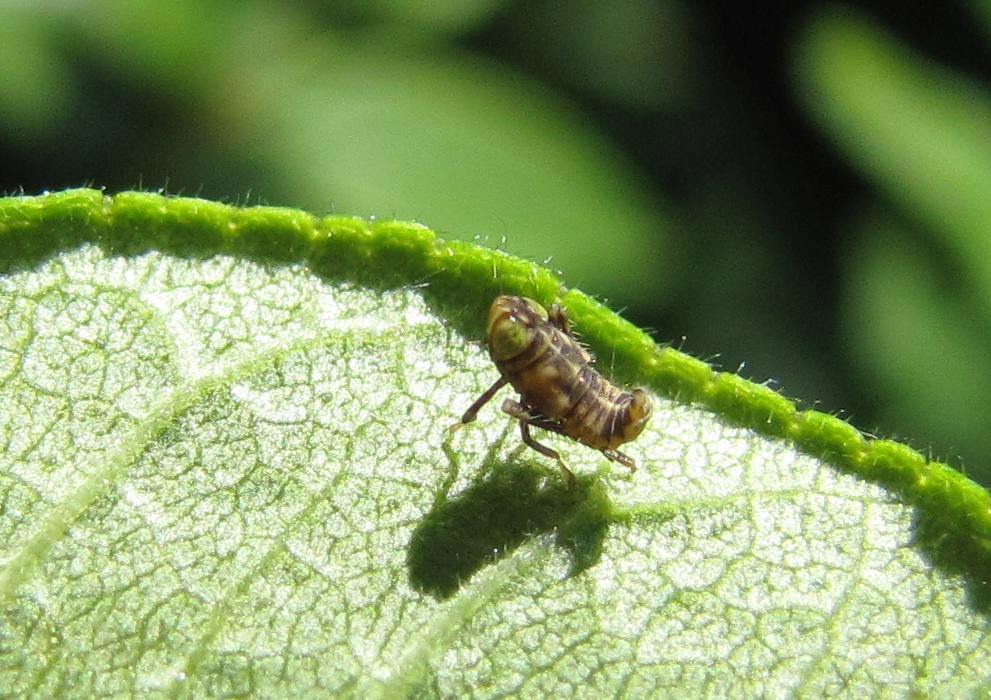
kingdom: Animalia
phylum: Arthropoda
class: Insecta
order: Hemiptera
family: Cicadellidae
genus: Jikradia
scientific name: Jikradia olitoria
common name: Coppery leafhopper
